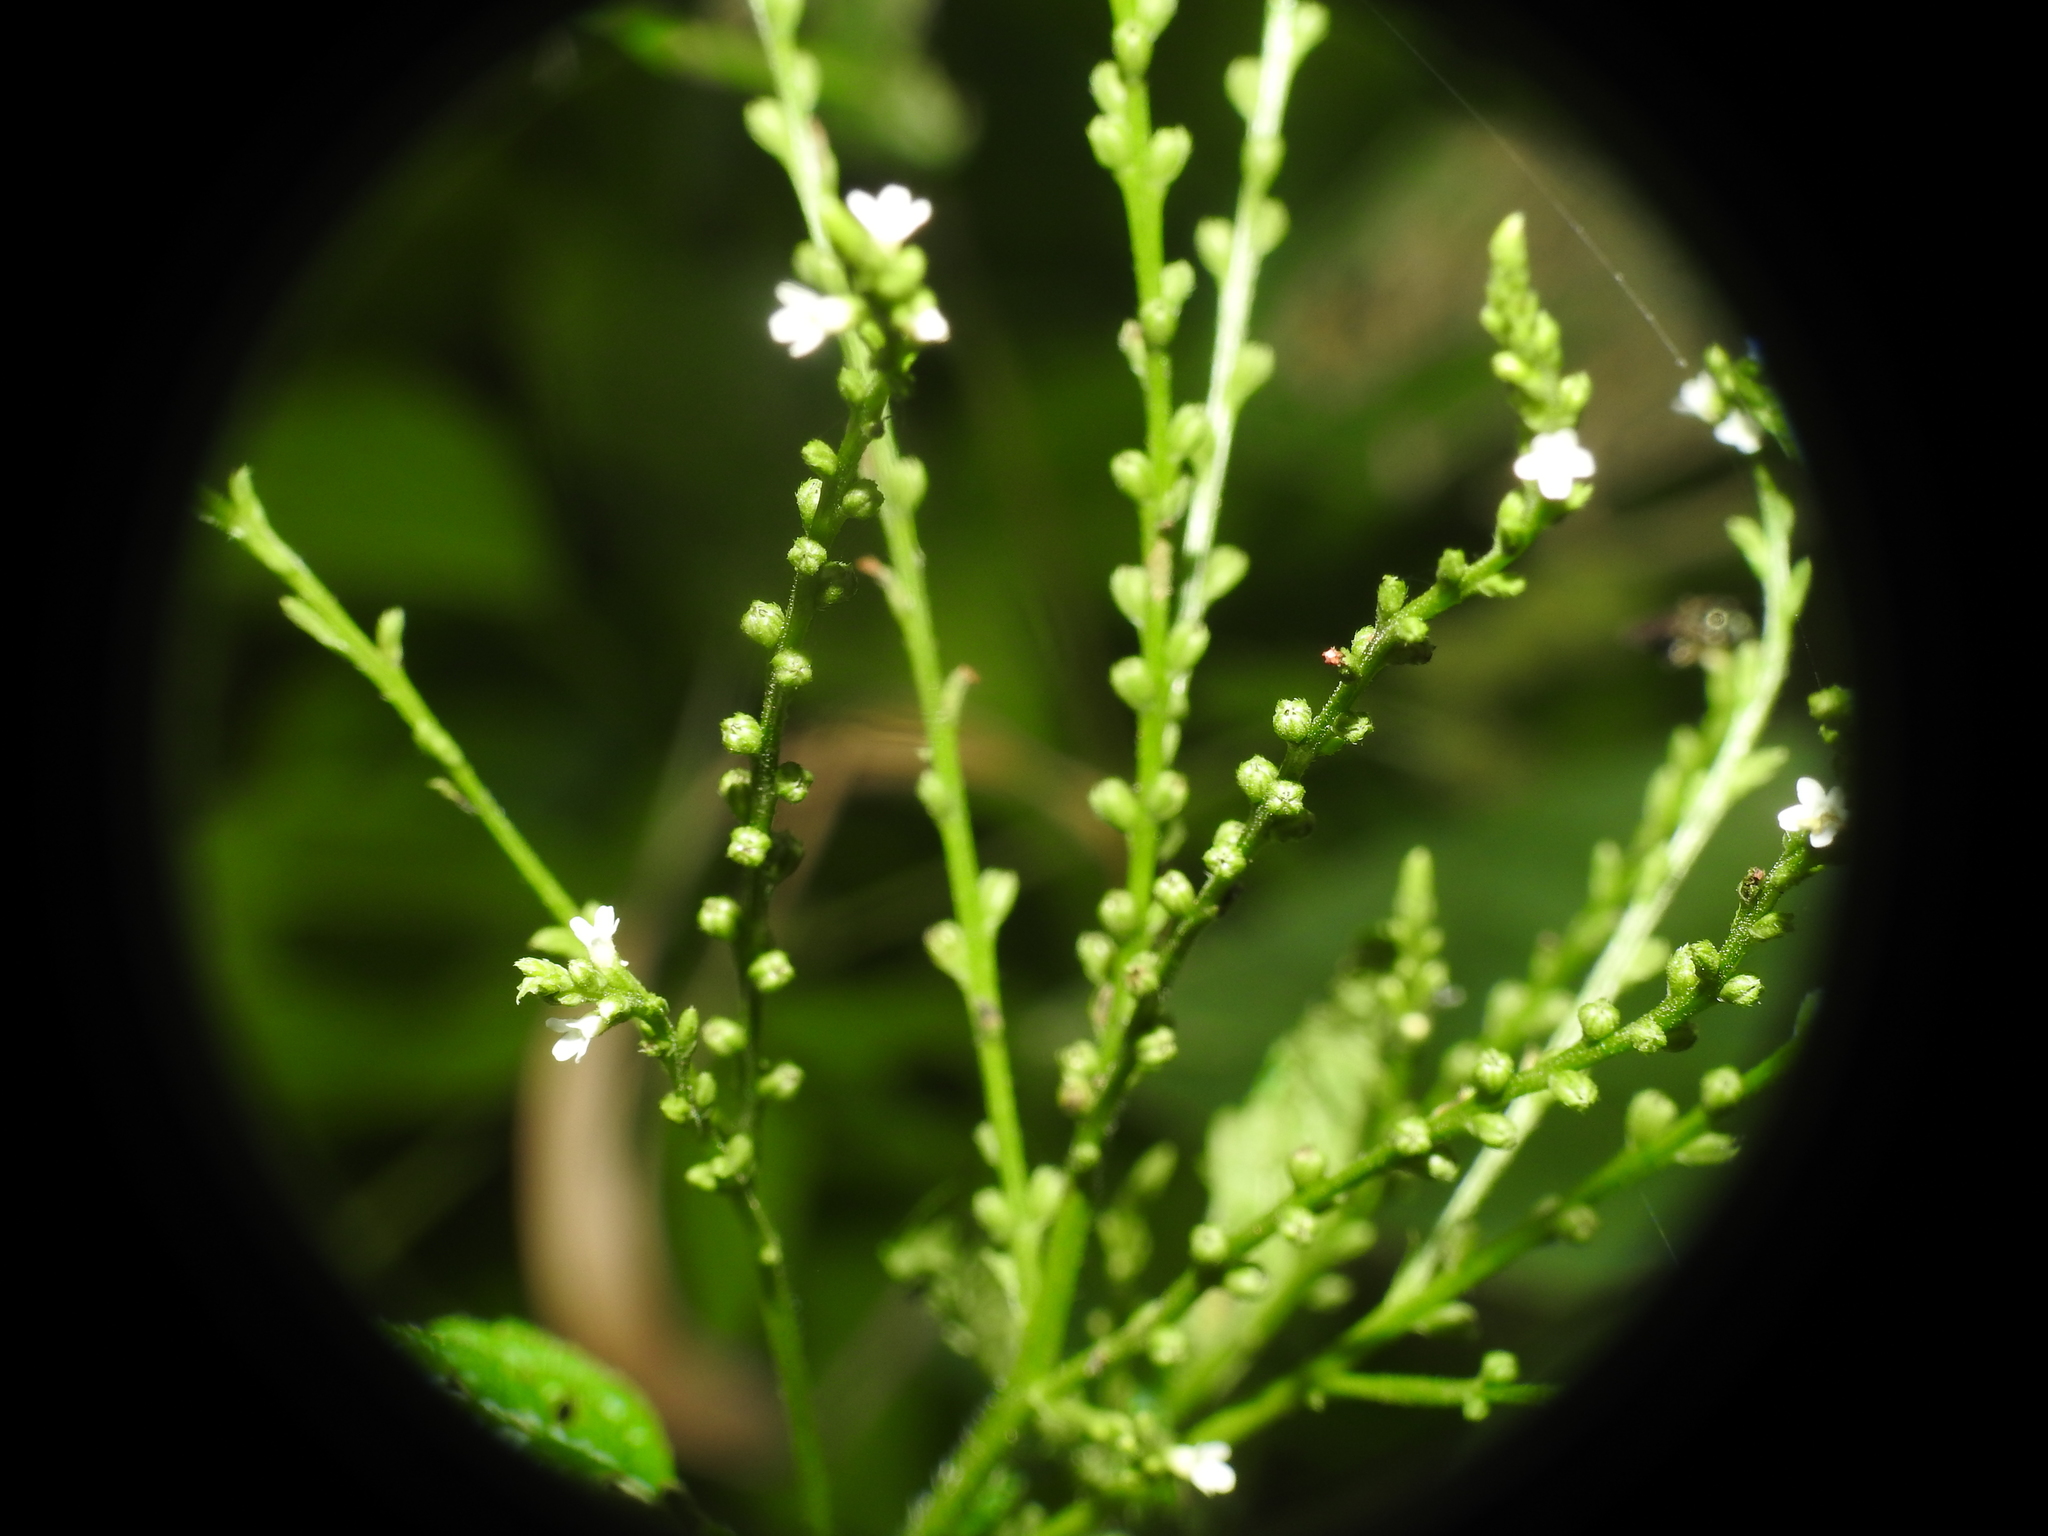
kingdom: Plantae
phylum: Tracheophyta
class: Magnoliopsida
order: Lamiales
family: Verbenaceae
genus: Verbena
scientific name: Verbena urticifolia
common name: Nettle-leaved vervain
